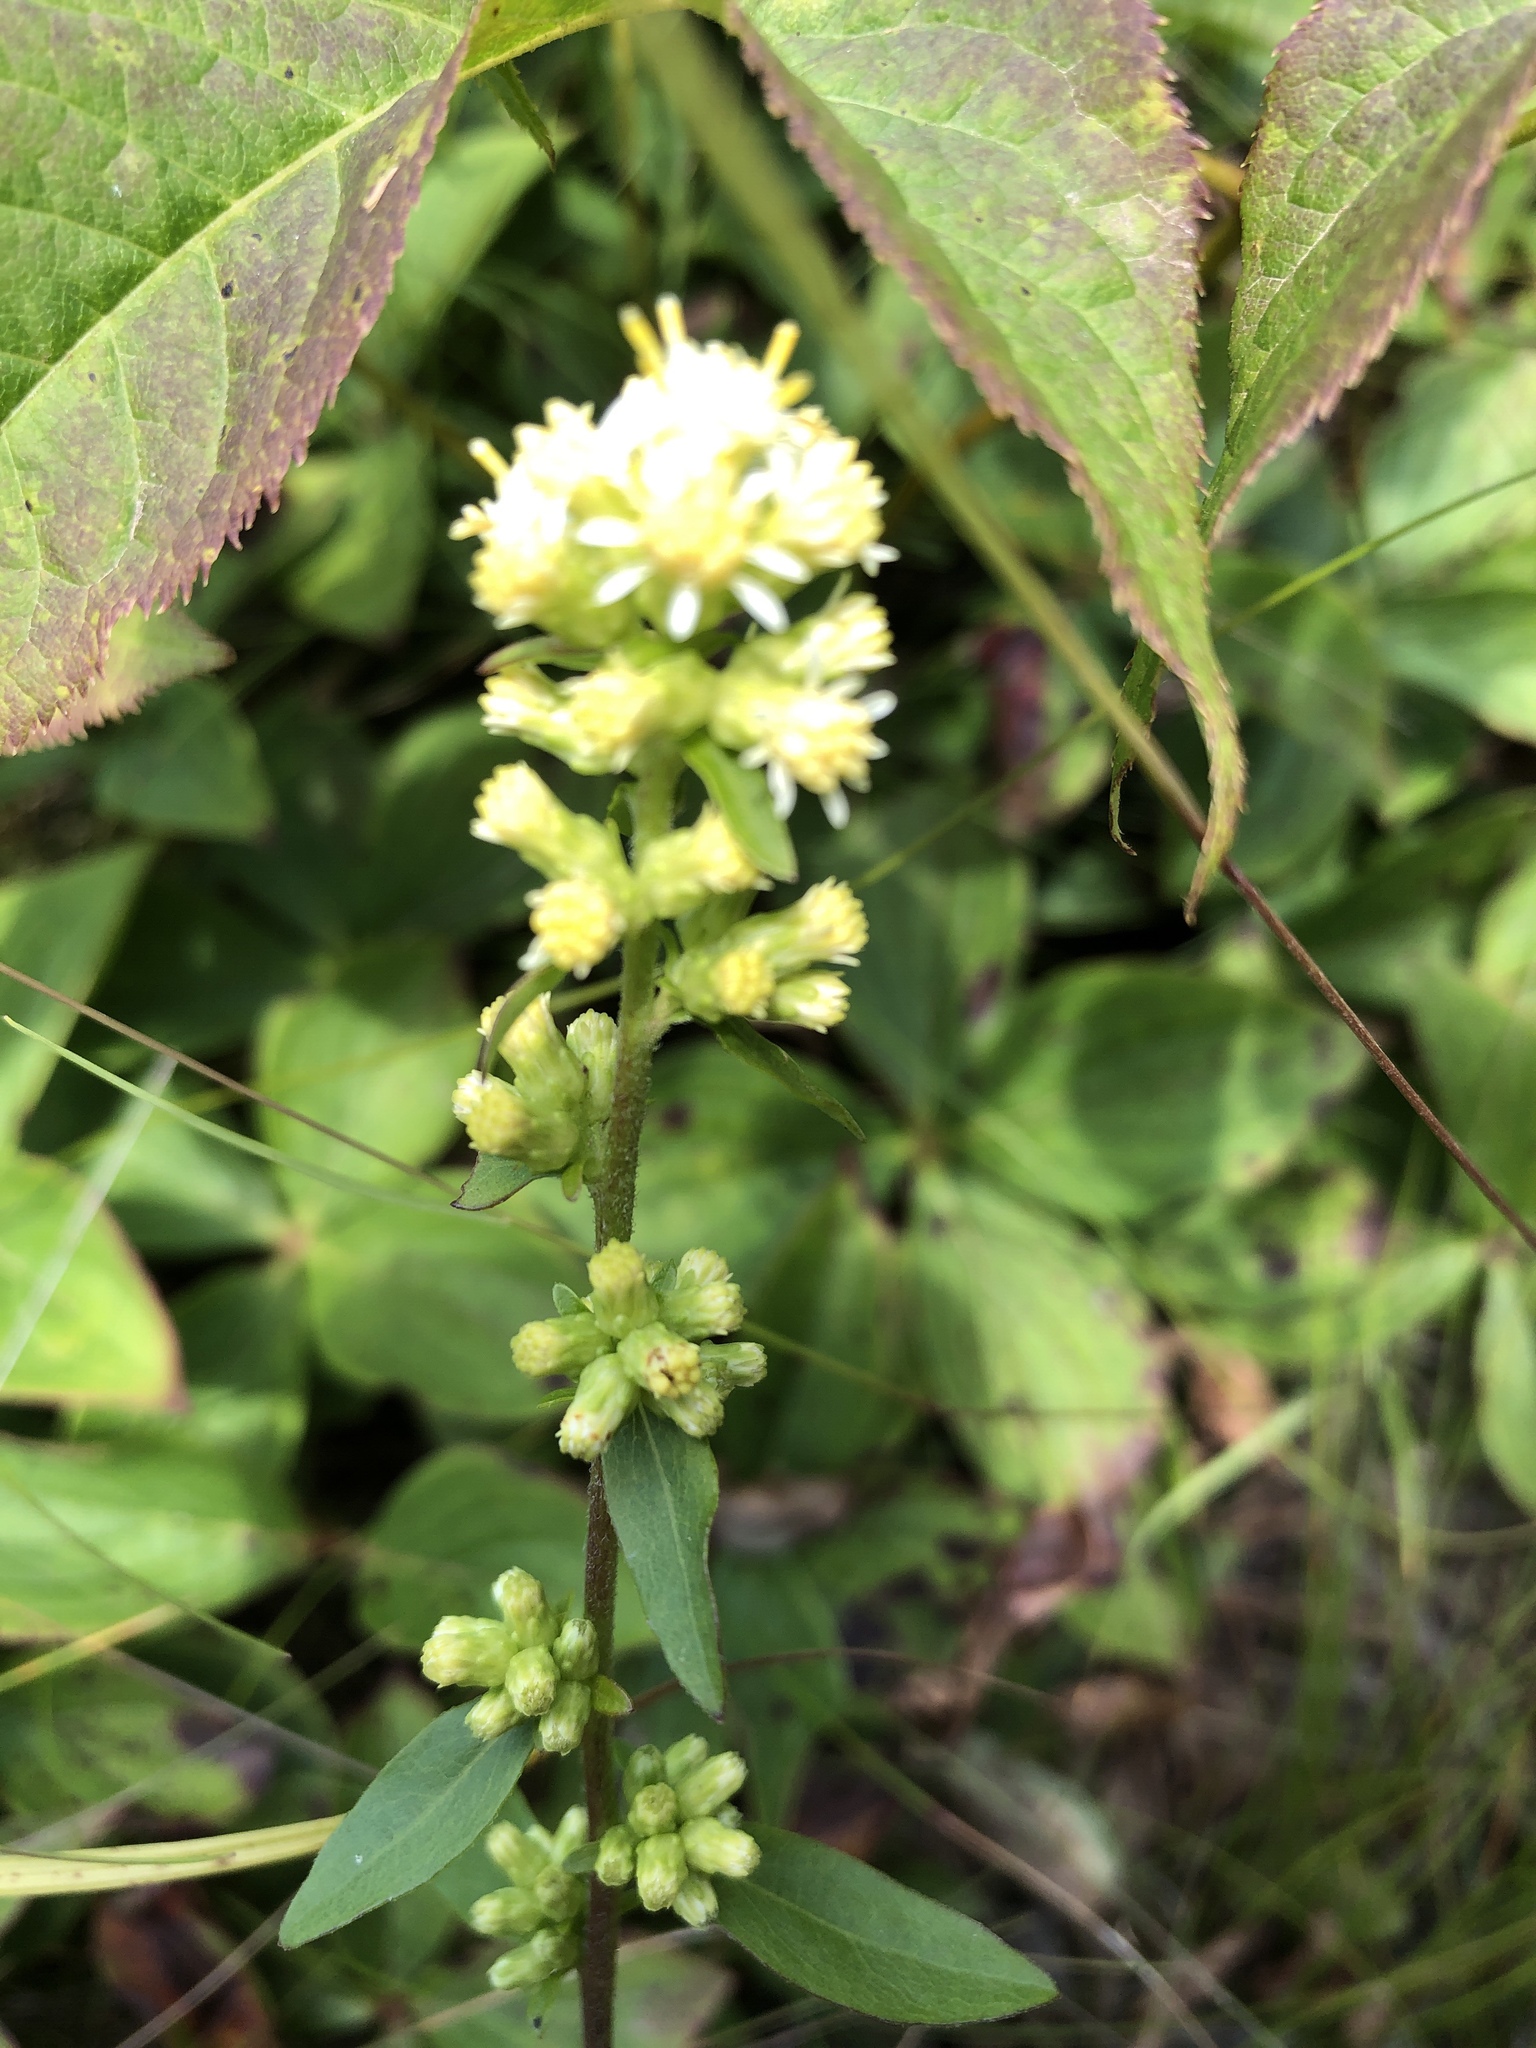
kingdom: Plantae
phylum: Tracheophyta
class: Magnoliopsida
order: Asterales
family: Asteraceae
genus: Solidago
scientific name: Solidago bicolor
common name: Silverrod
